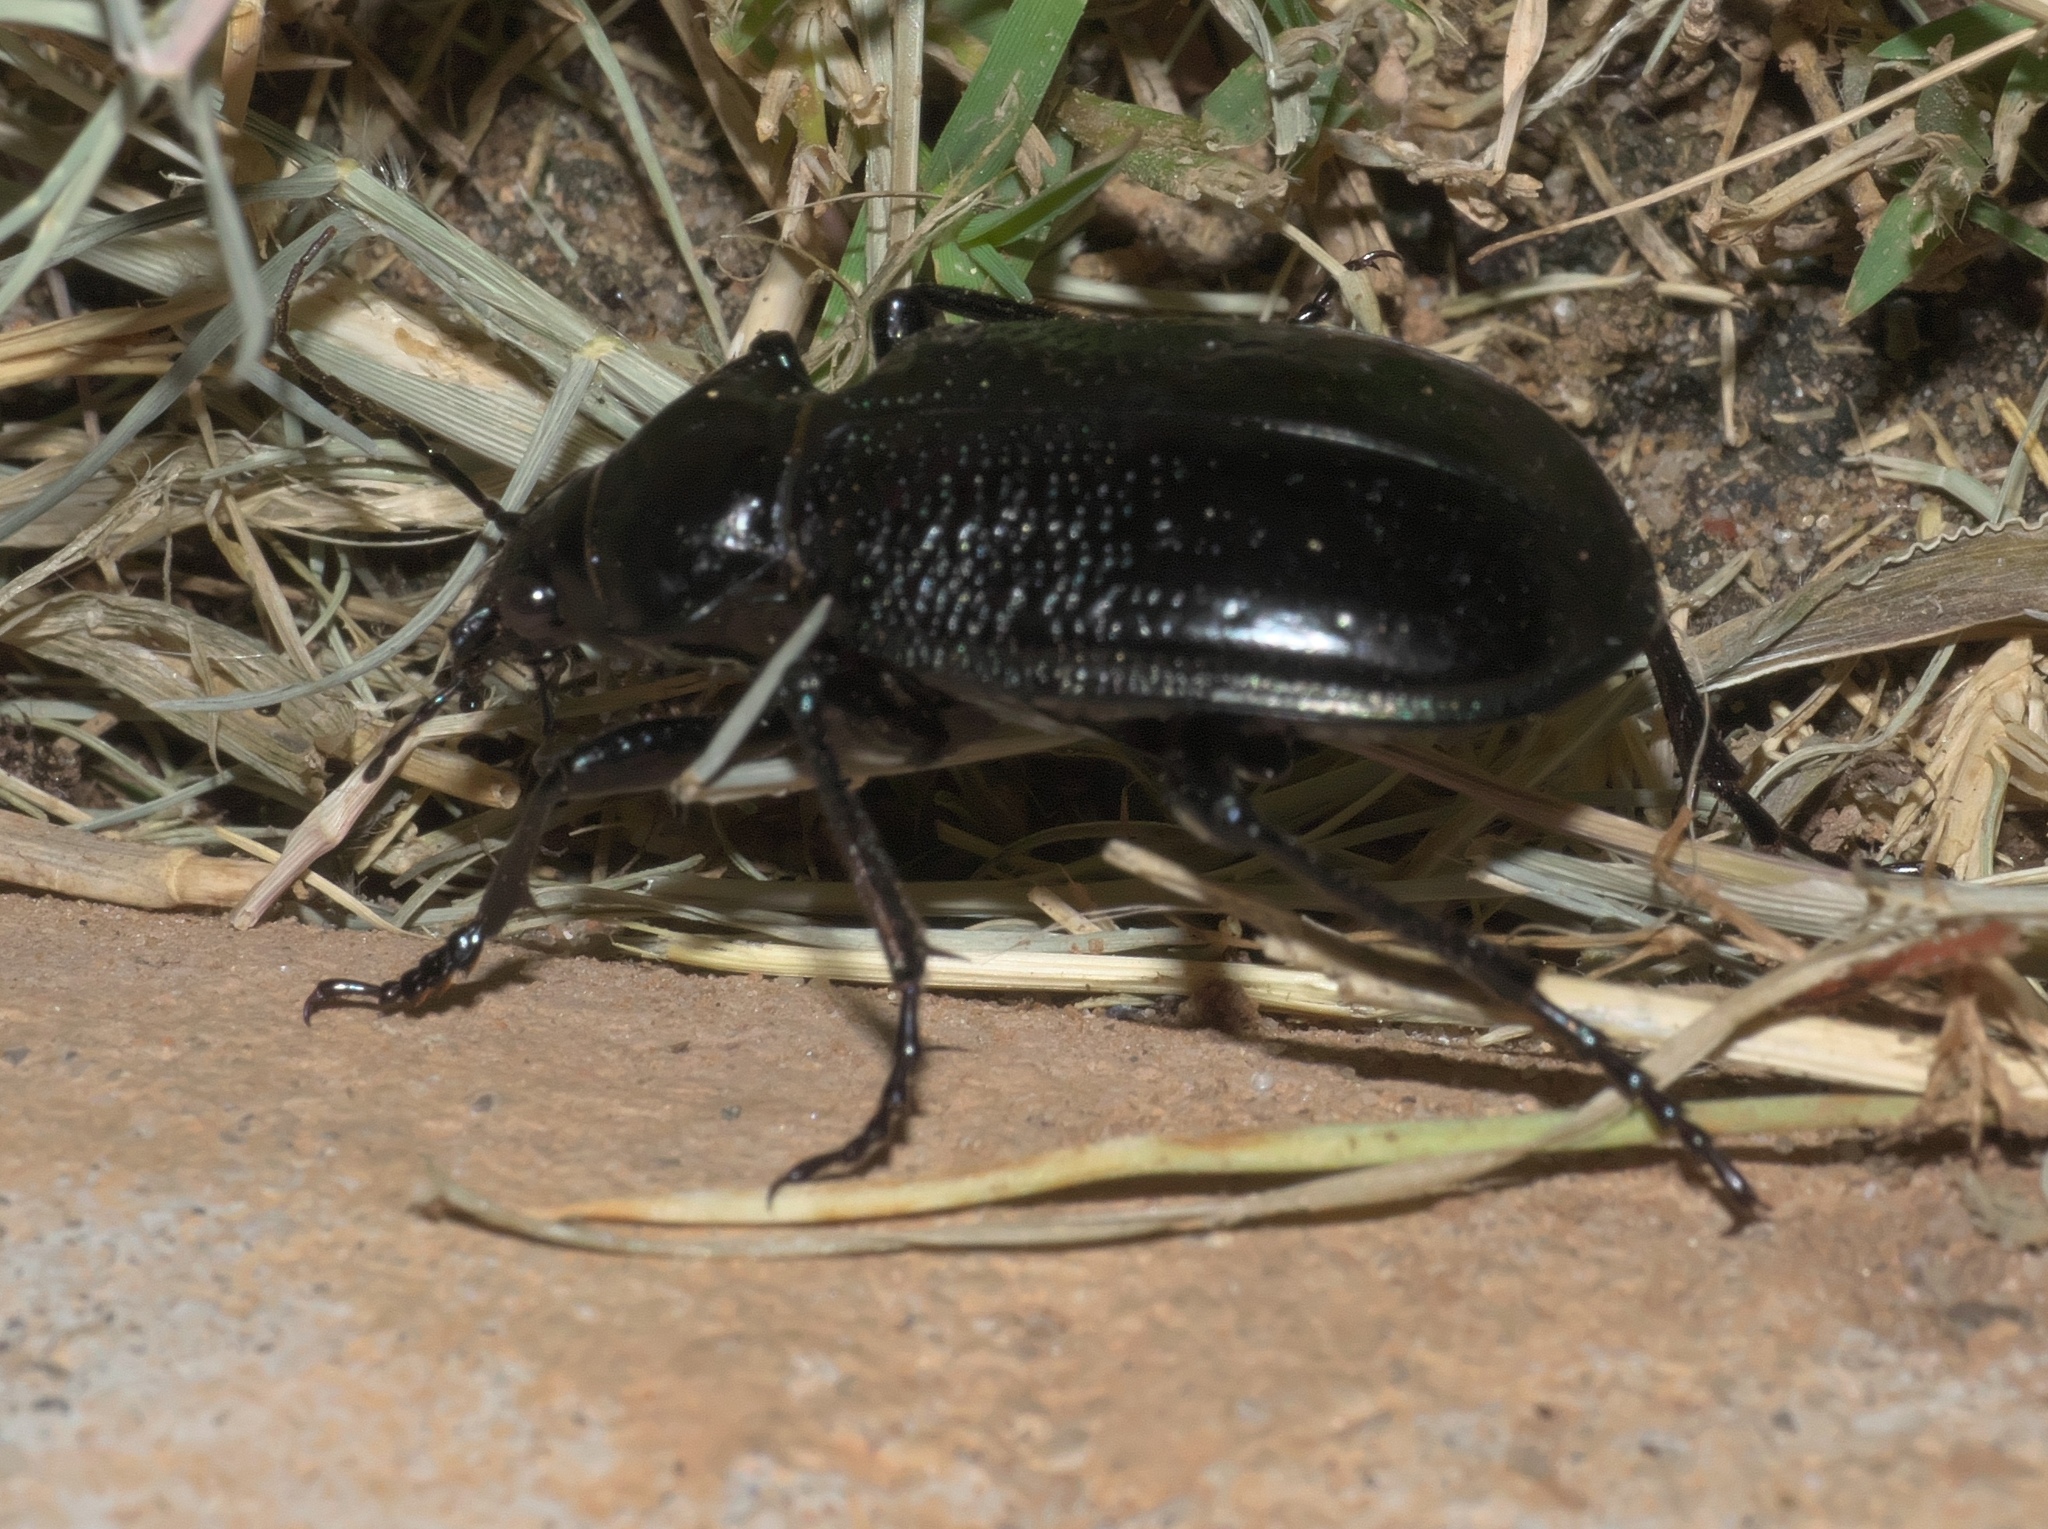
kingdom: Animalia
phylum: Arthropoda
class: Insecta
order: Coleoptera
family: Carabidae
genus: Calosoma
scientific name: Calosoma marginale
